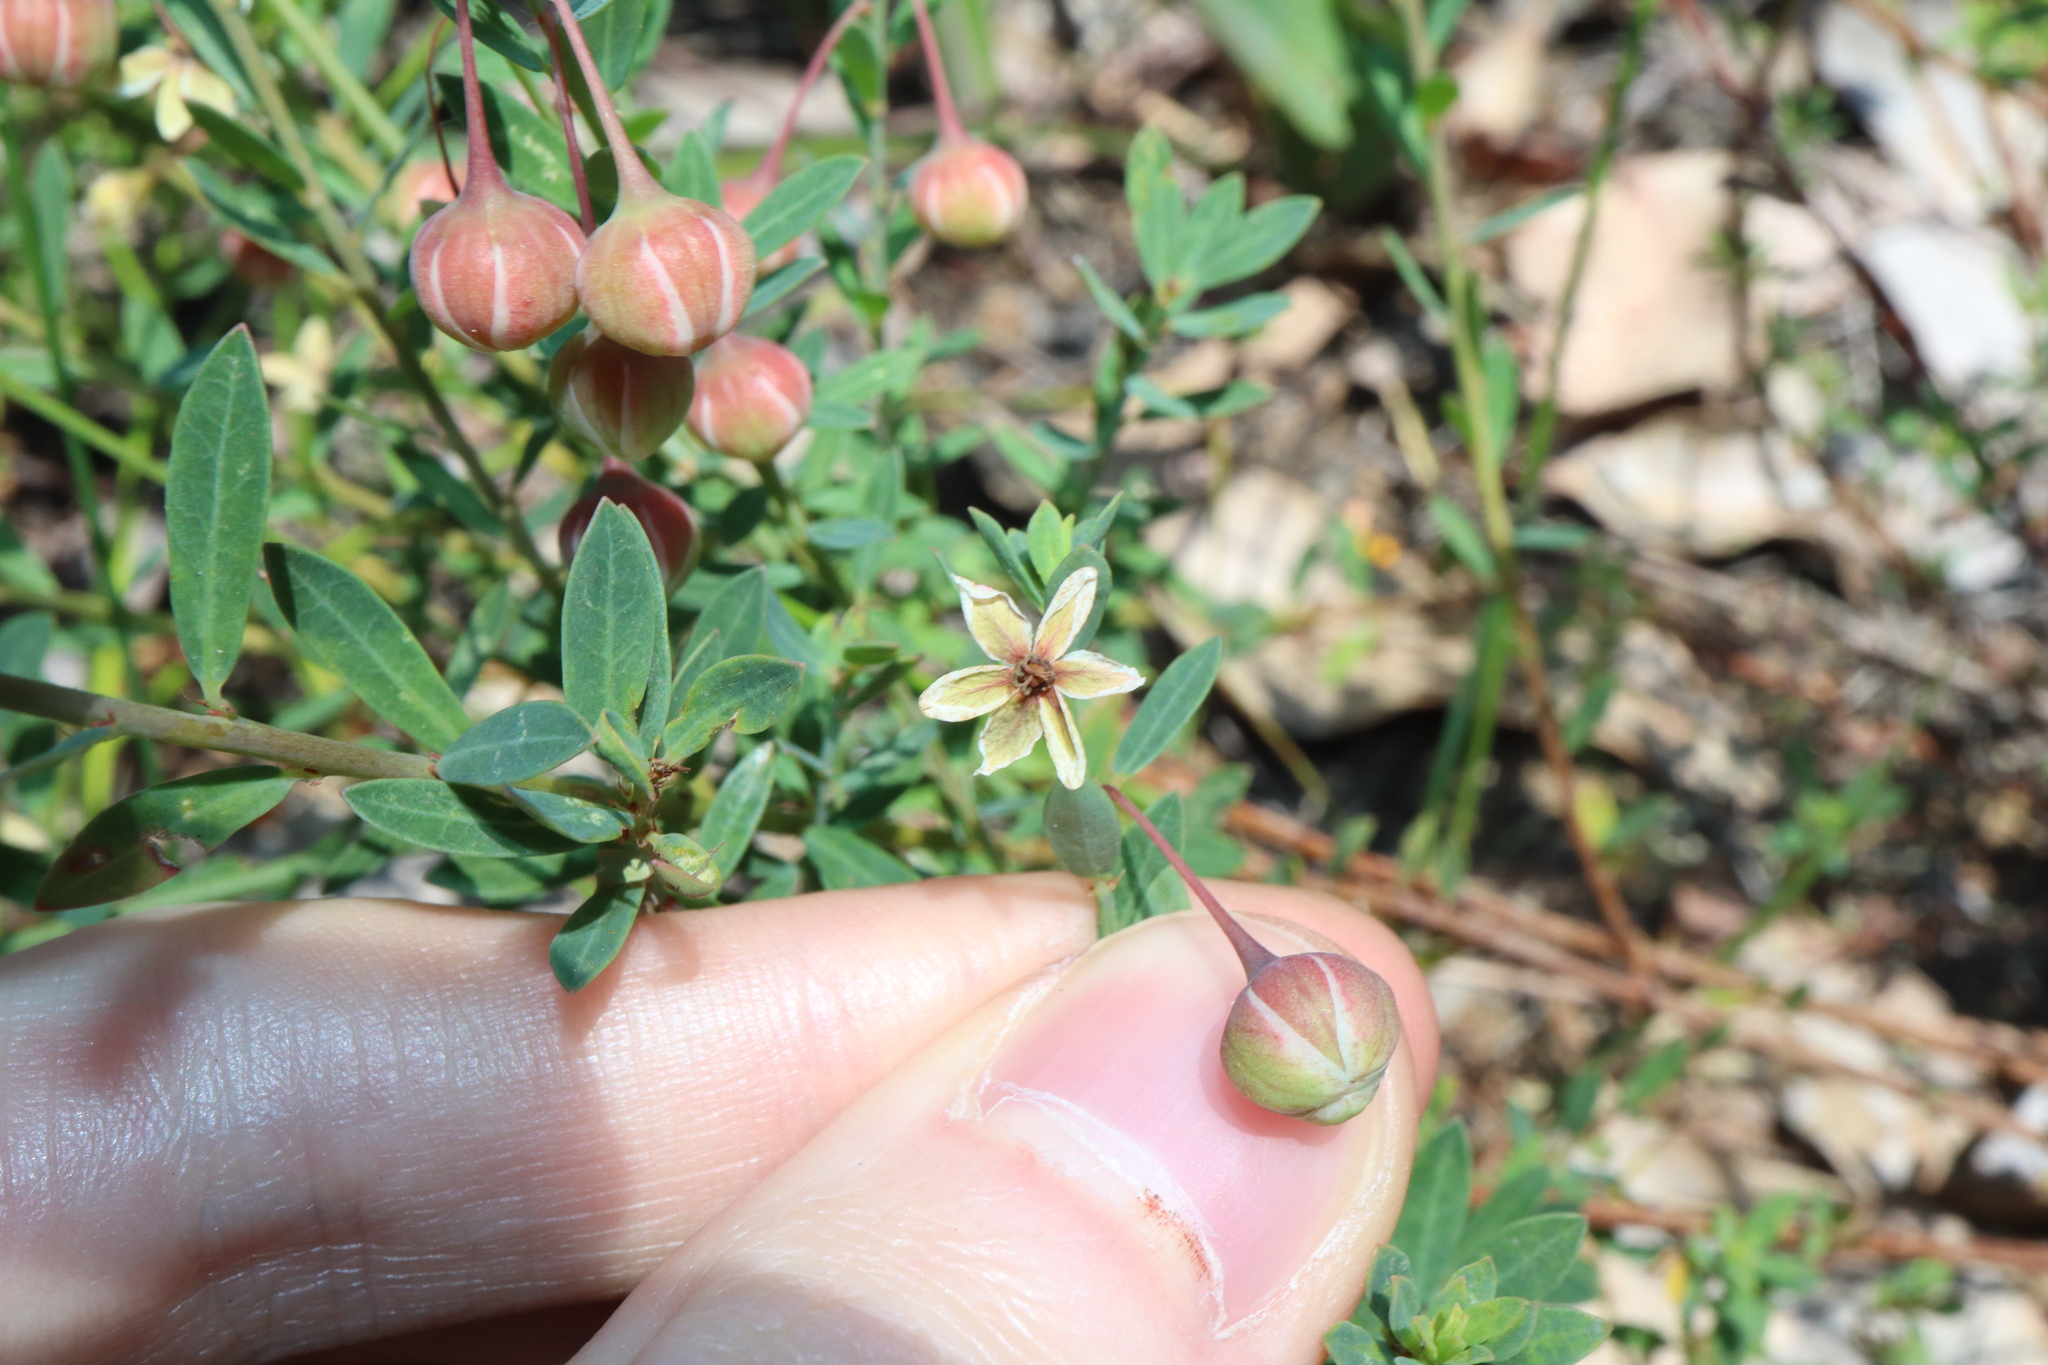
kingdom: Plantae
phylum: Tracheophyta
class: Magnoliopsida
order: Malpighiales
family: Phyllanthaceae
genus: Phyllanthus
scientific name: Phyllanthus calycinus
